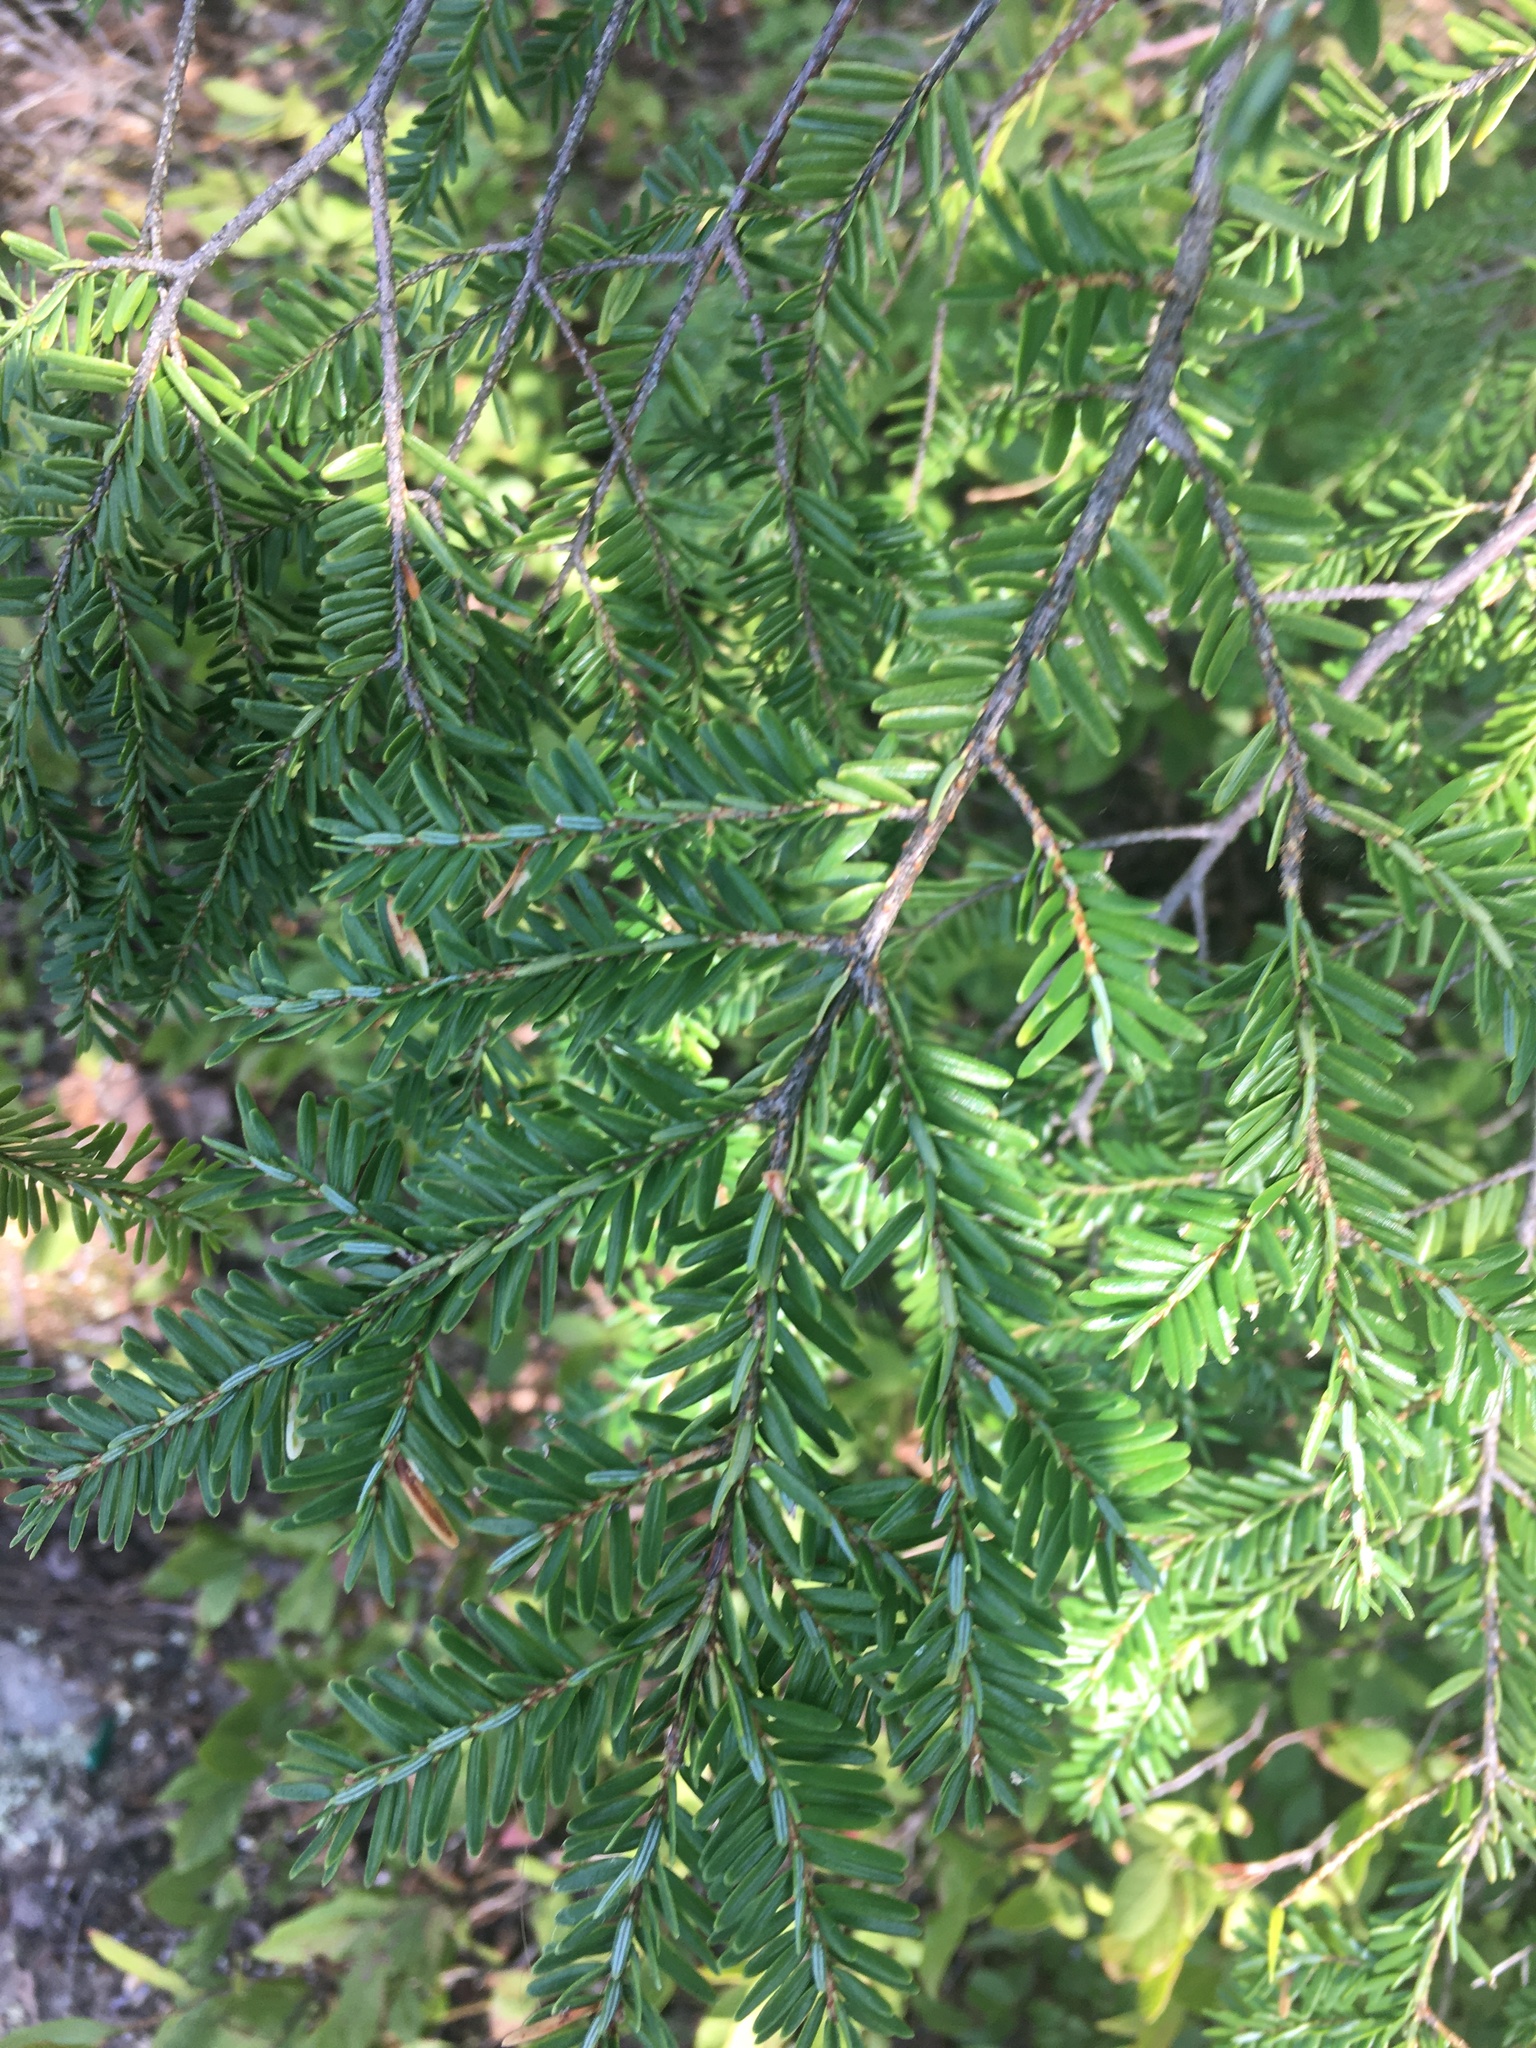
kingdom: Plantae
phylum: Tracheophyta
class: Pinopsida
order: Pinales
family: Pinaceae
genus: Tsuga
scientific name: Tsuga canadensis
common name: Eastern hemlock
